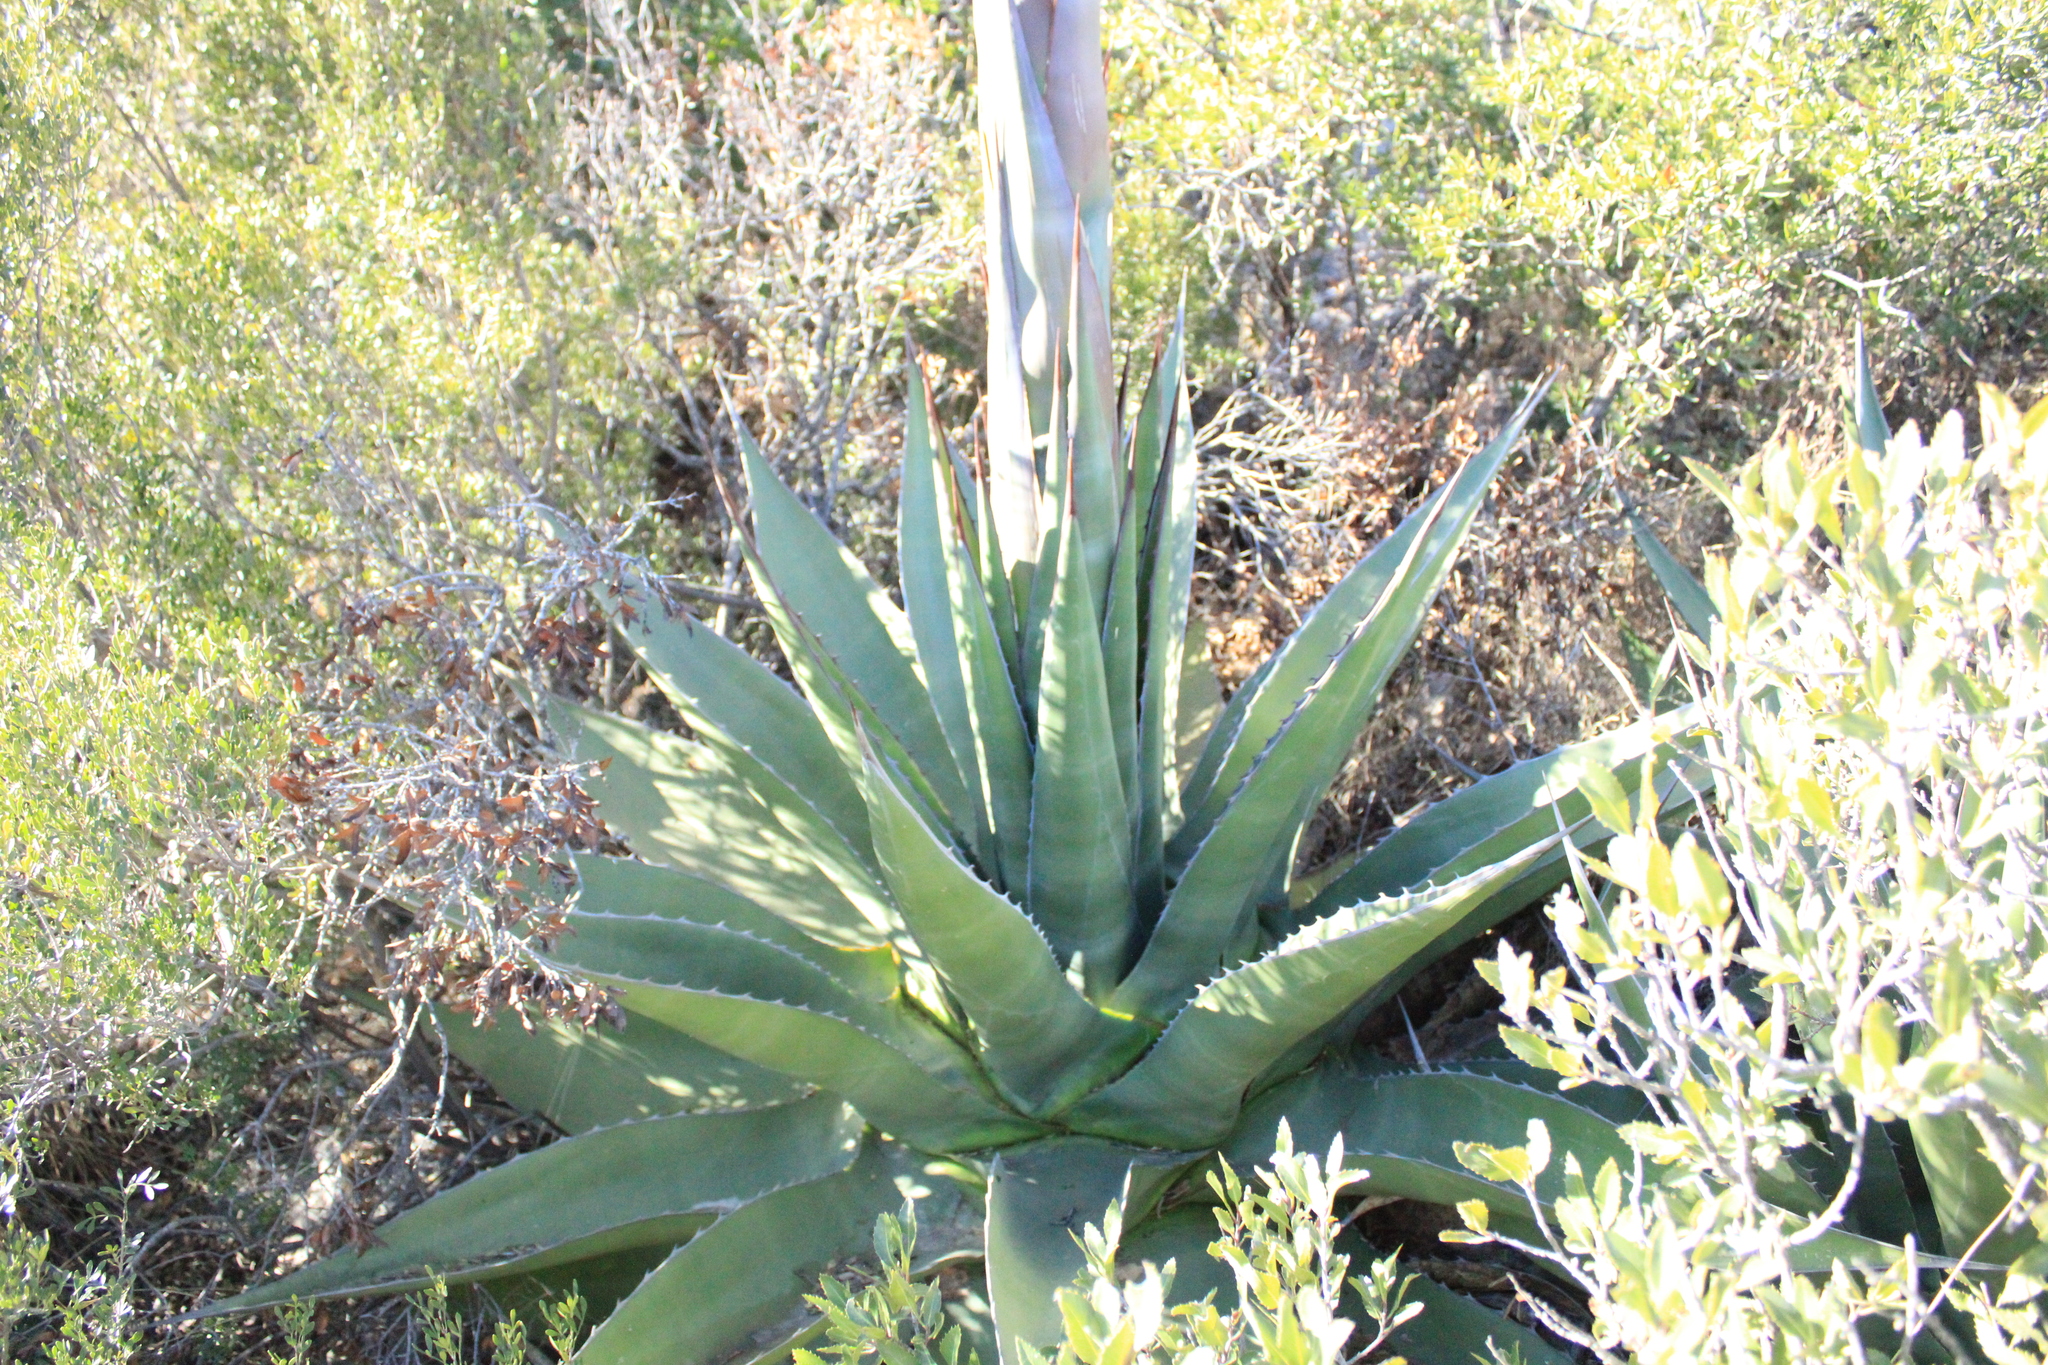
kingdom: Plantae
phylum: Tracheophyta
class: Liliopsida
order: Asparagales
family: Asparagaceae
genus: Agave
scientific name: Agave gentryi
